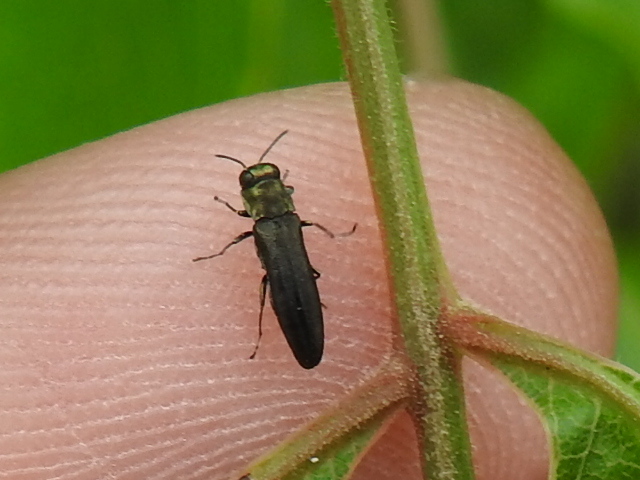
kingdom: Animalia
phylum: Arthropoda
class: Insecta
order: Coleoptera
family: Buprestidae
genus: Agrilaxia
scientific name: Agrilaxia flavimana
